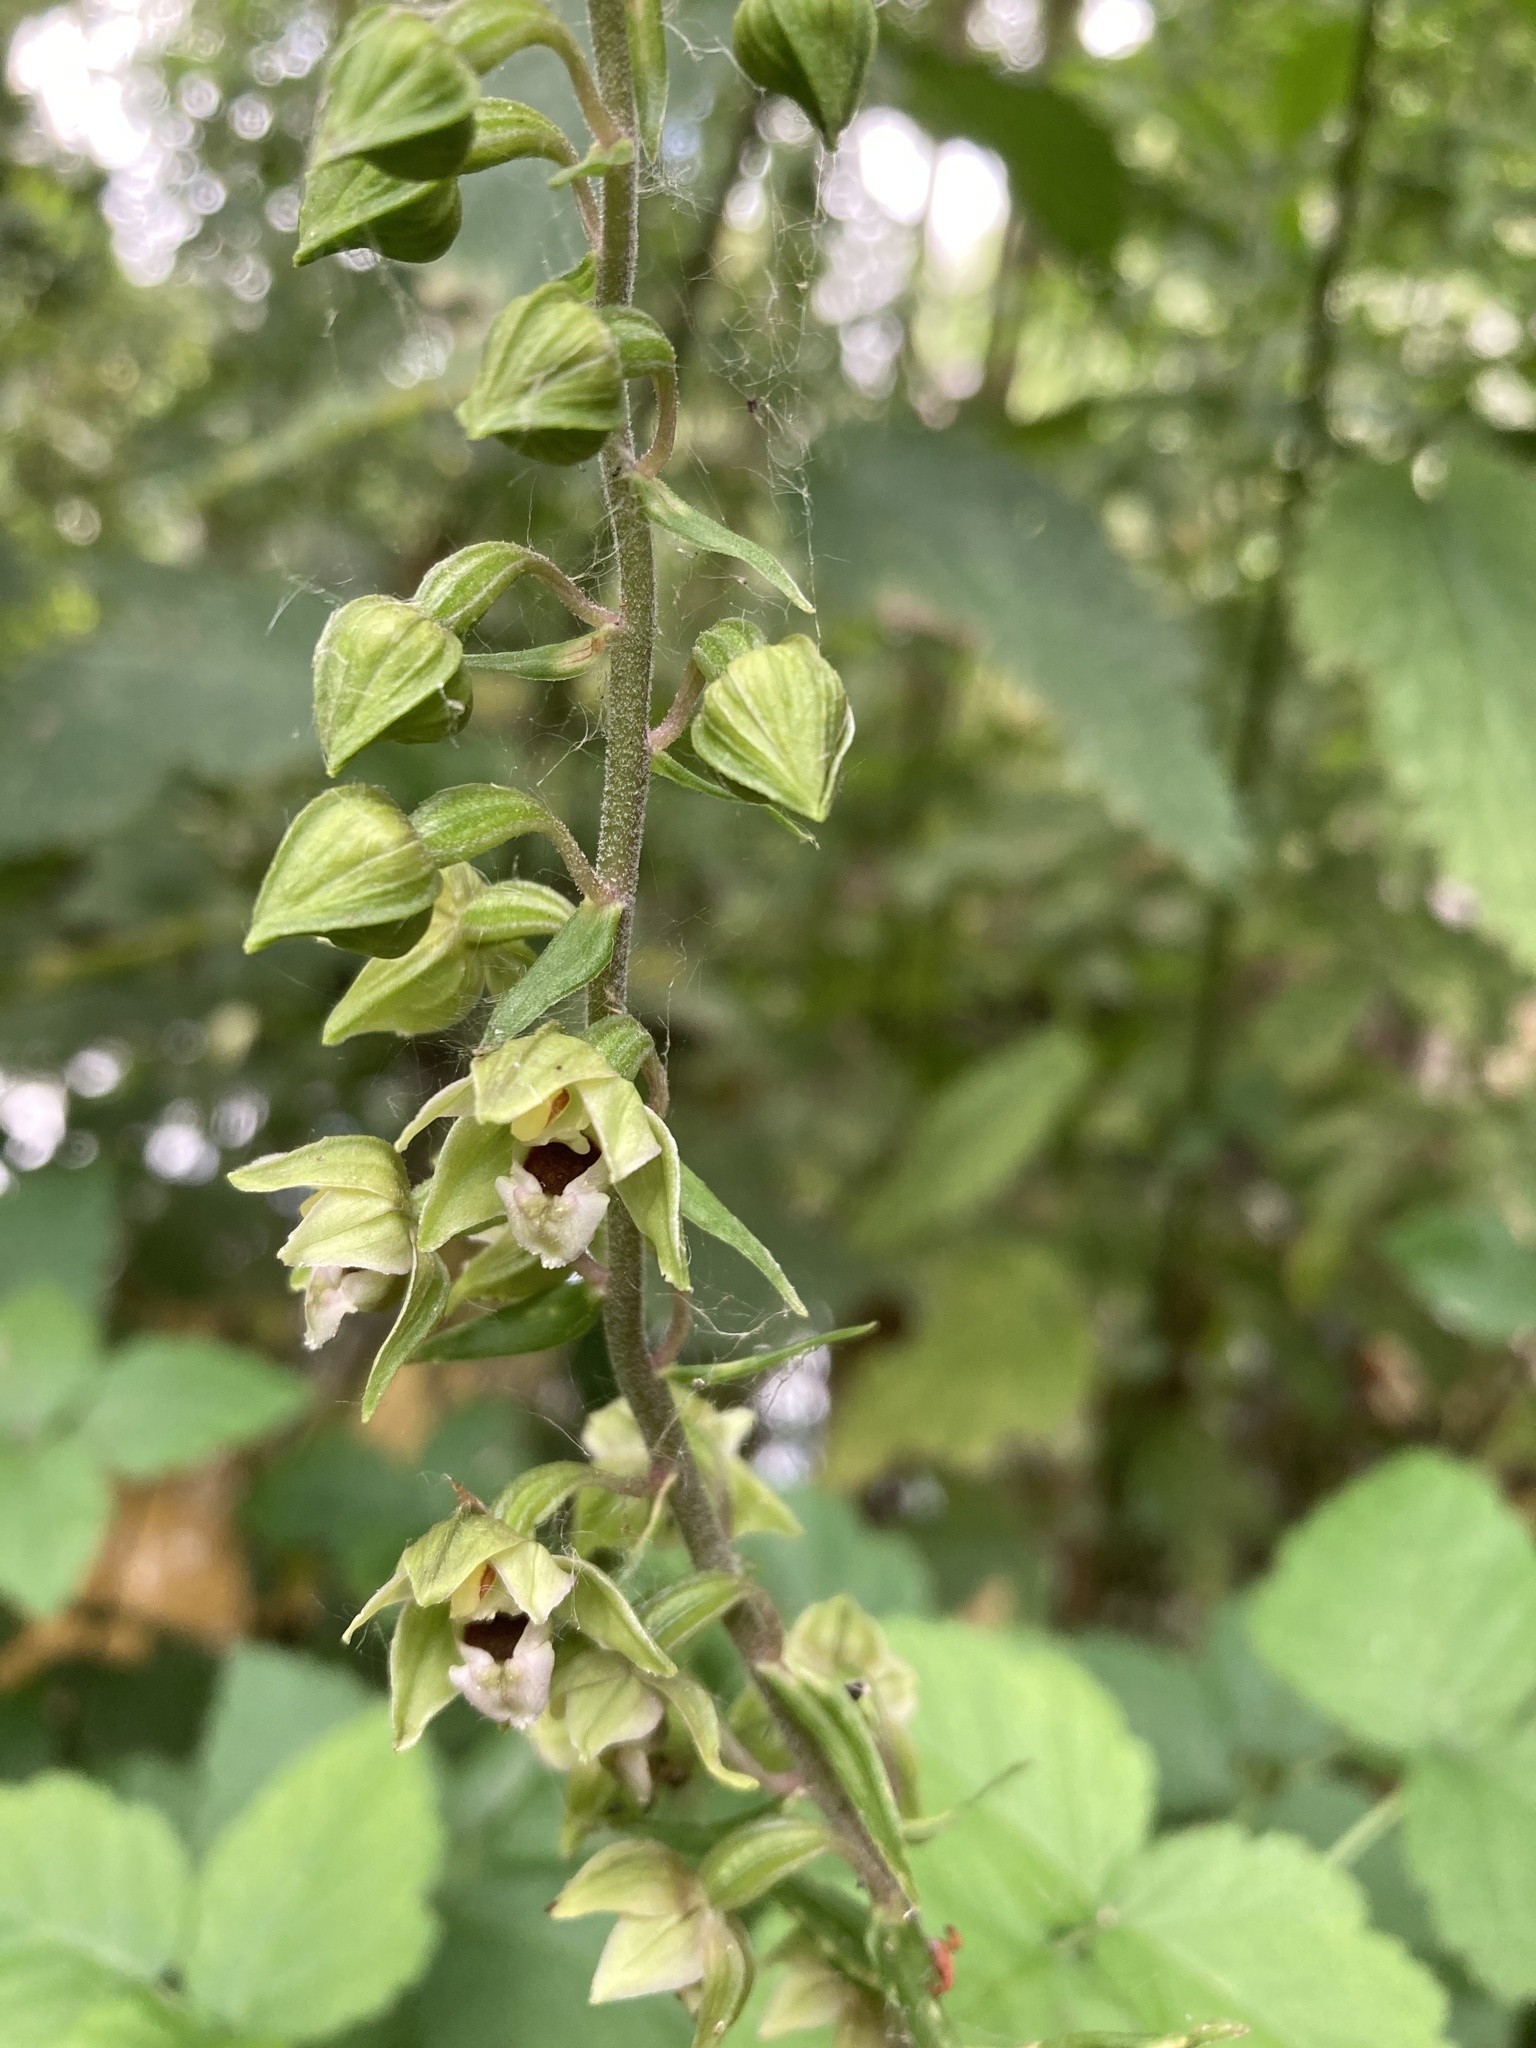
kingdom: Plantae
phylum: Tracheophyta
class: Liliopsida
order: Asparagales
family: Orchidaceae
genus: Epipactis
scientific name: Epipactis helleborine
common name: Broad-leaved helleborine
